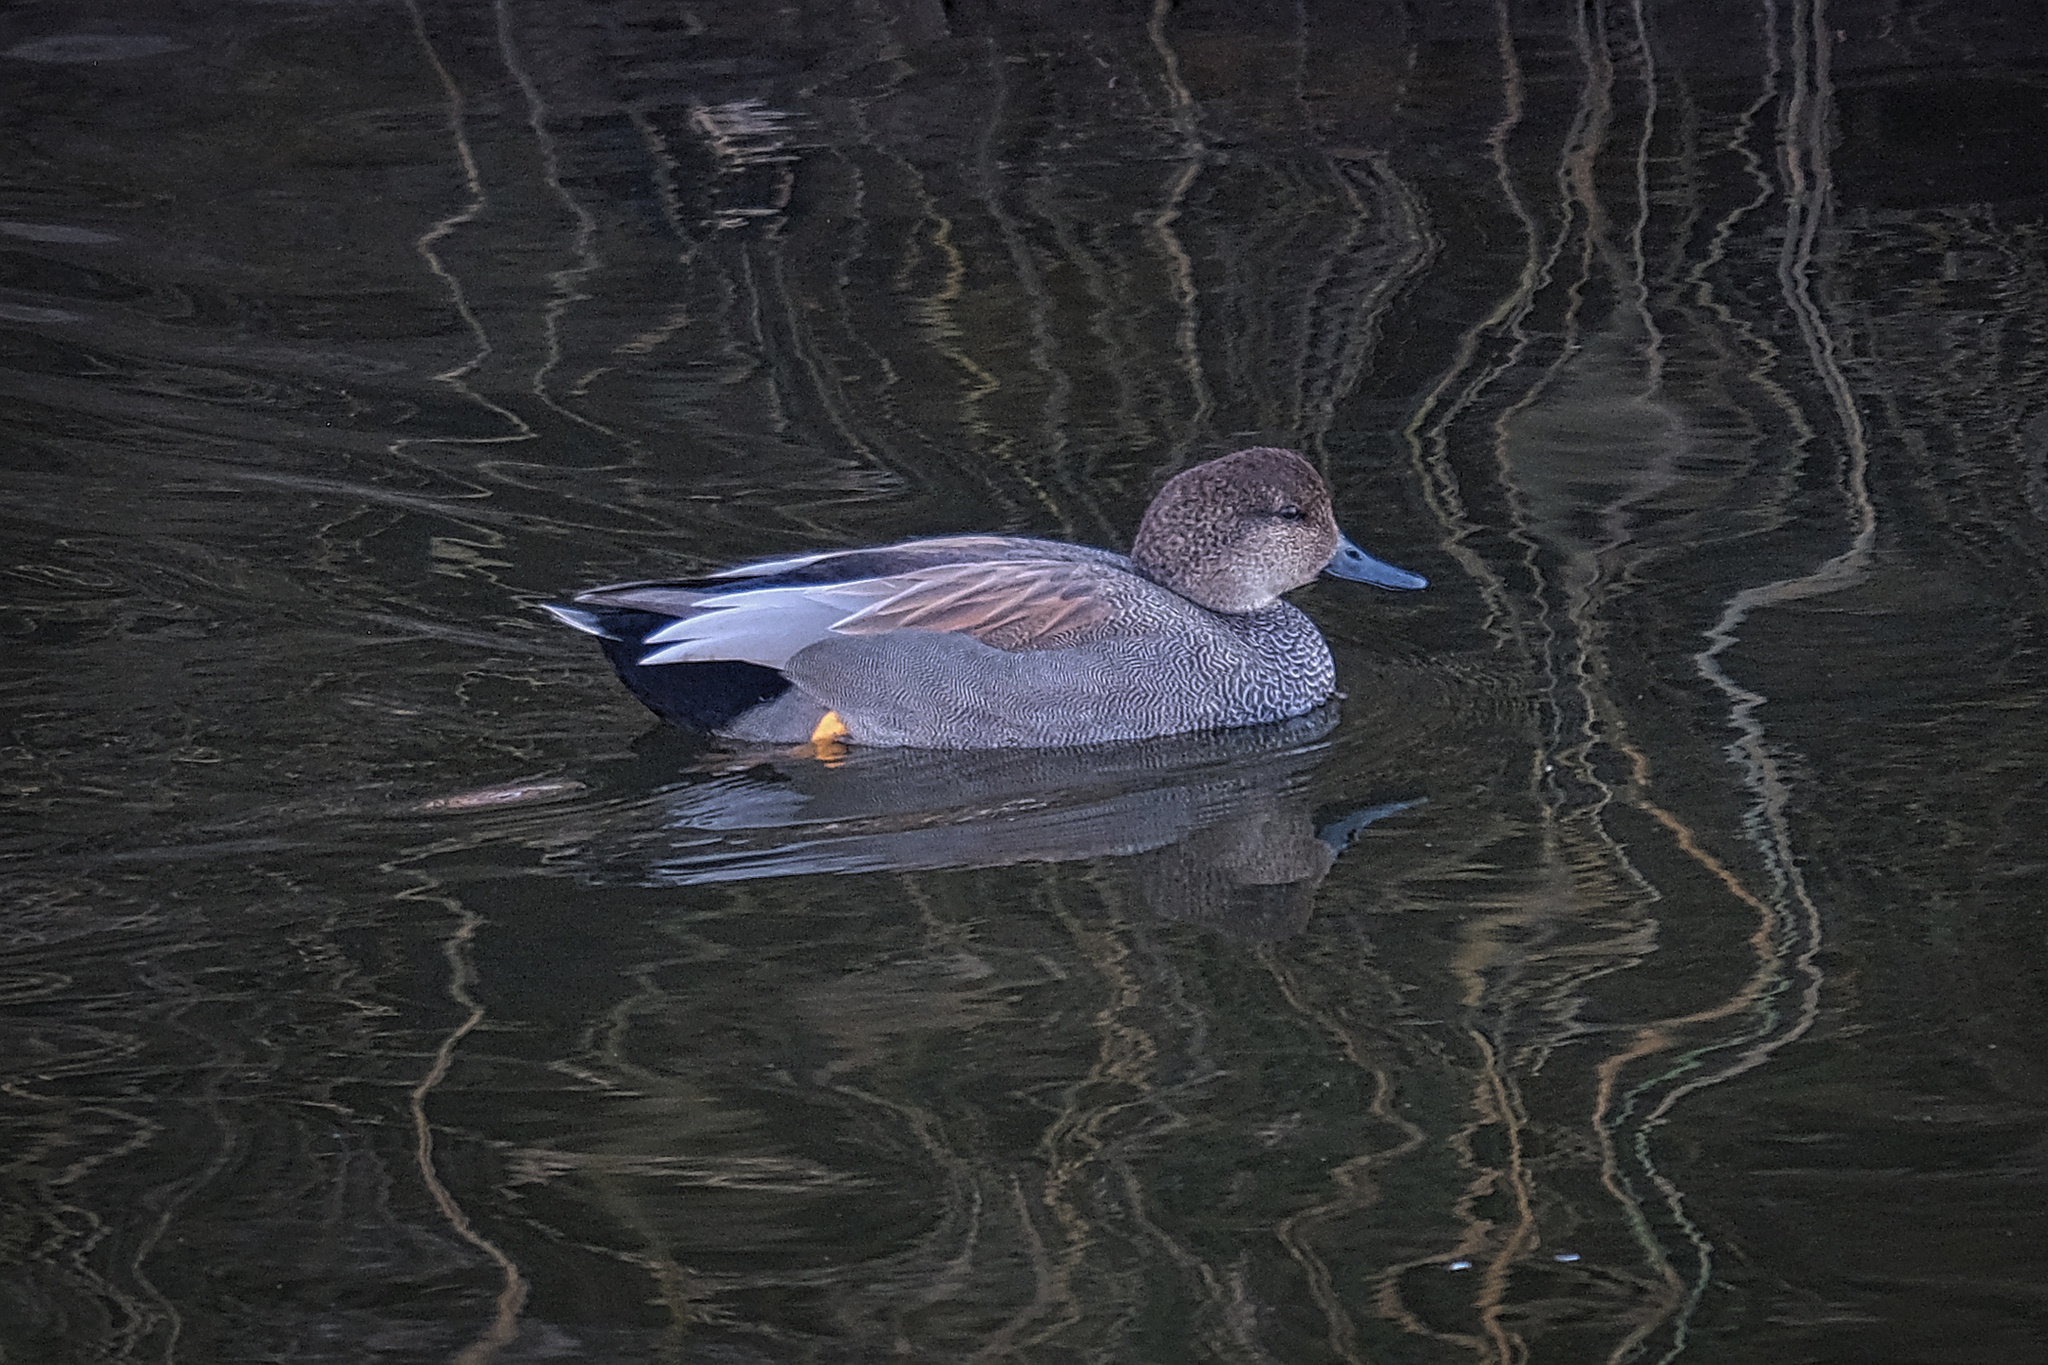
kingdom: Animalia
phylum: Chordata
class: Aves
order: Anseriformes
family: Anatidae
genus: Mareca
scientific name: Mareca strepera
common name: Gadwall
